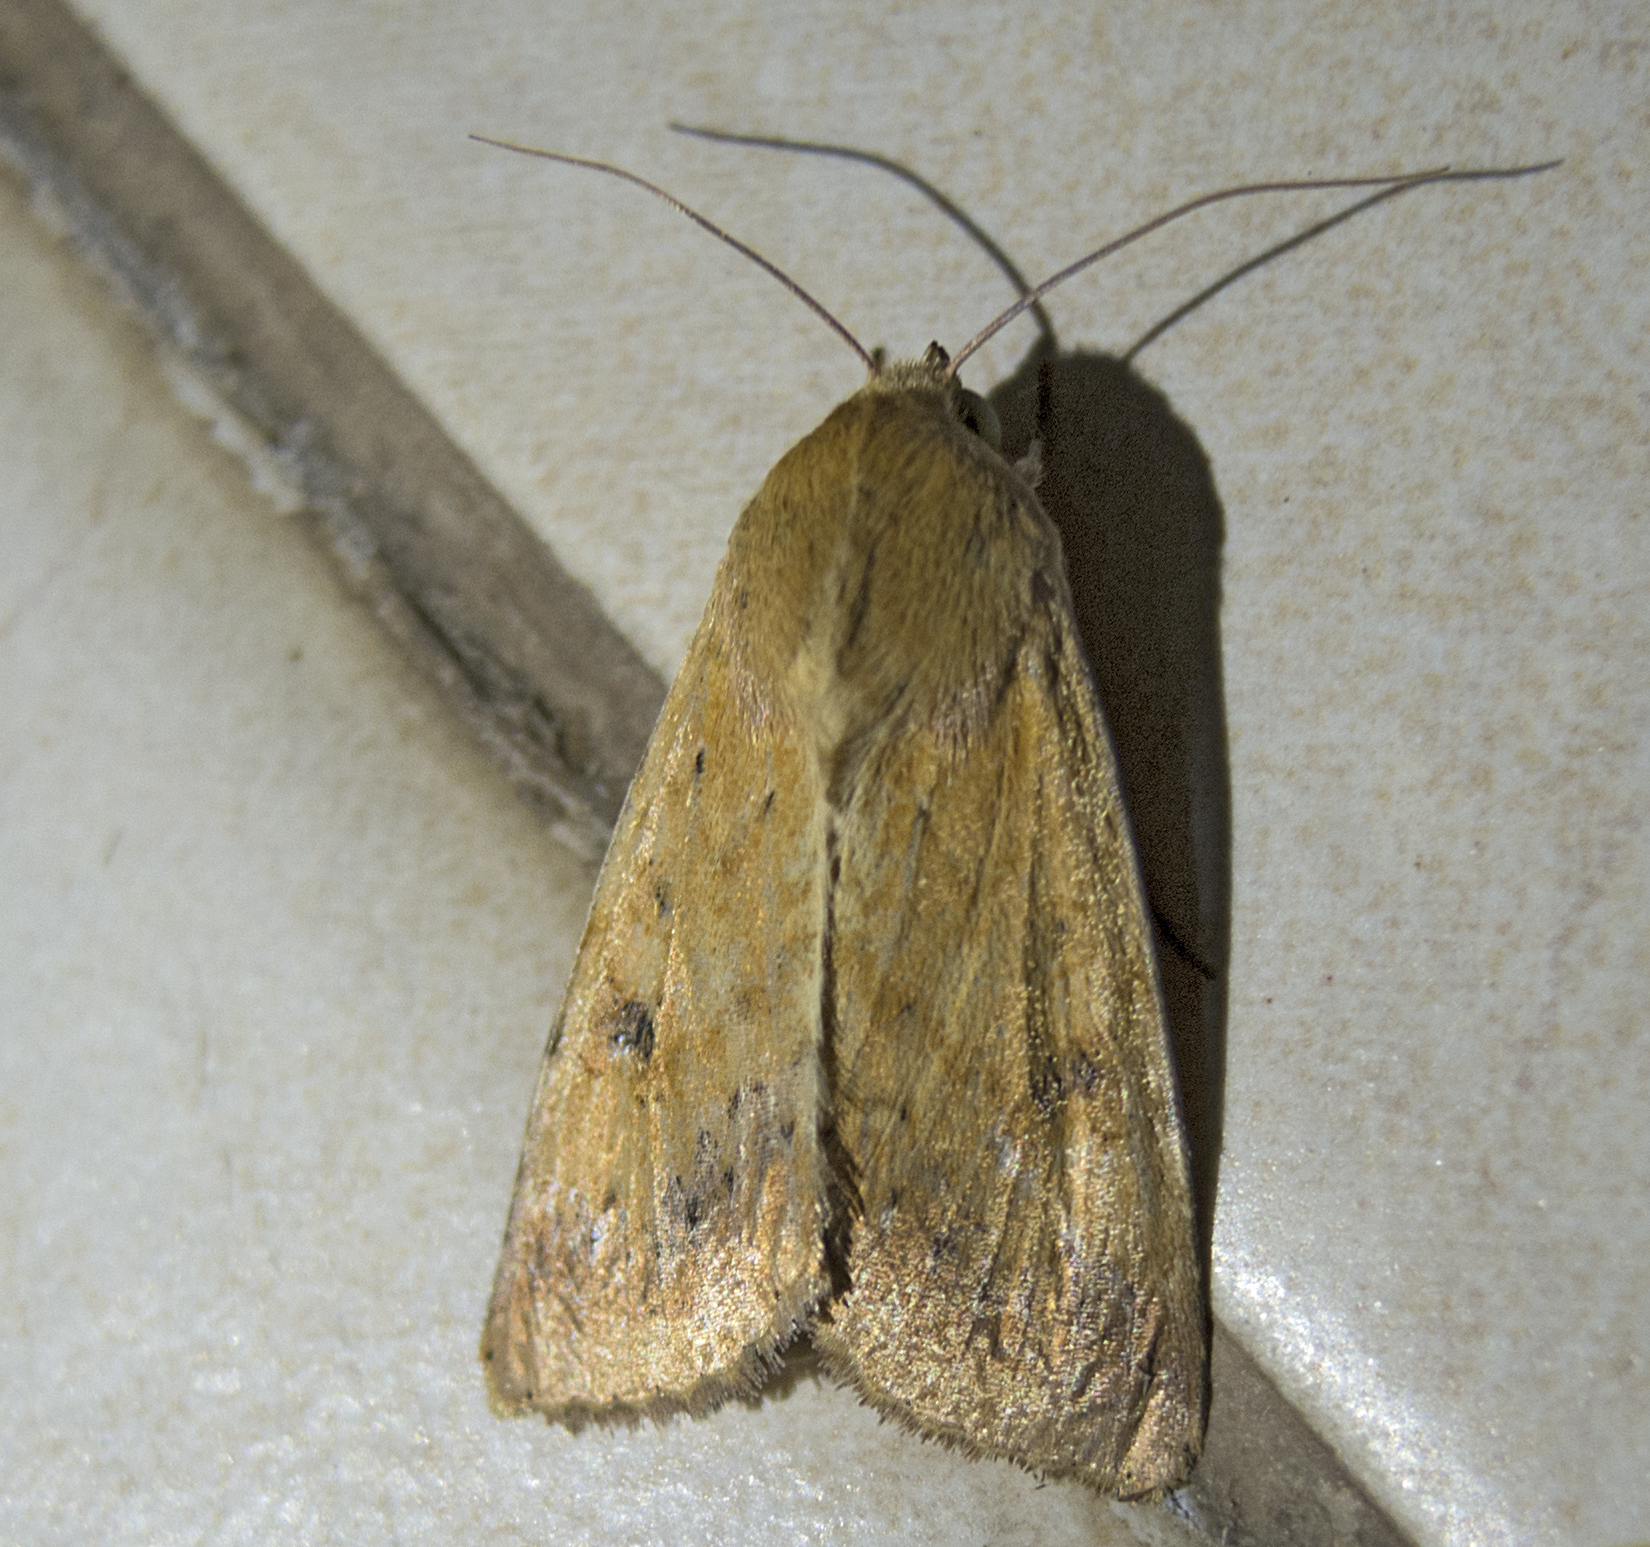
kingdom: Animalia
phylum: Arthropoda
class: Insecta
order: Lepidoptera
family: Noctuidae
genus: Helicoverpa
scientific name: Helicoverpa armigera
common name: Cotton bollworm
